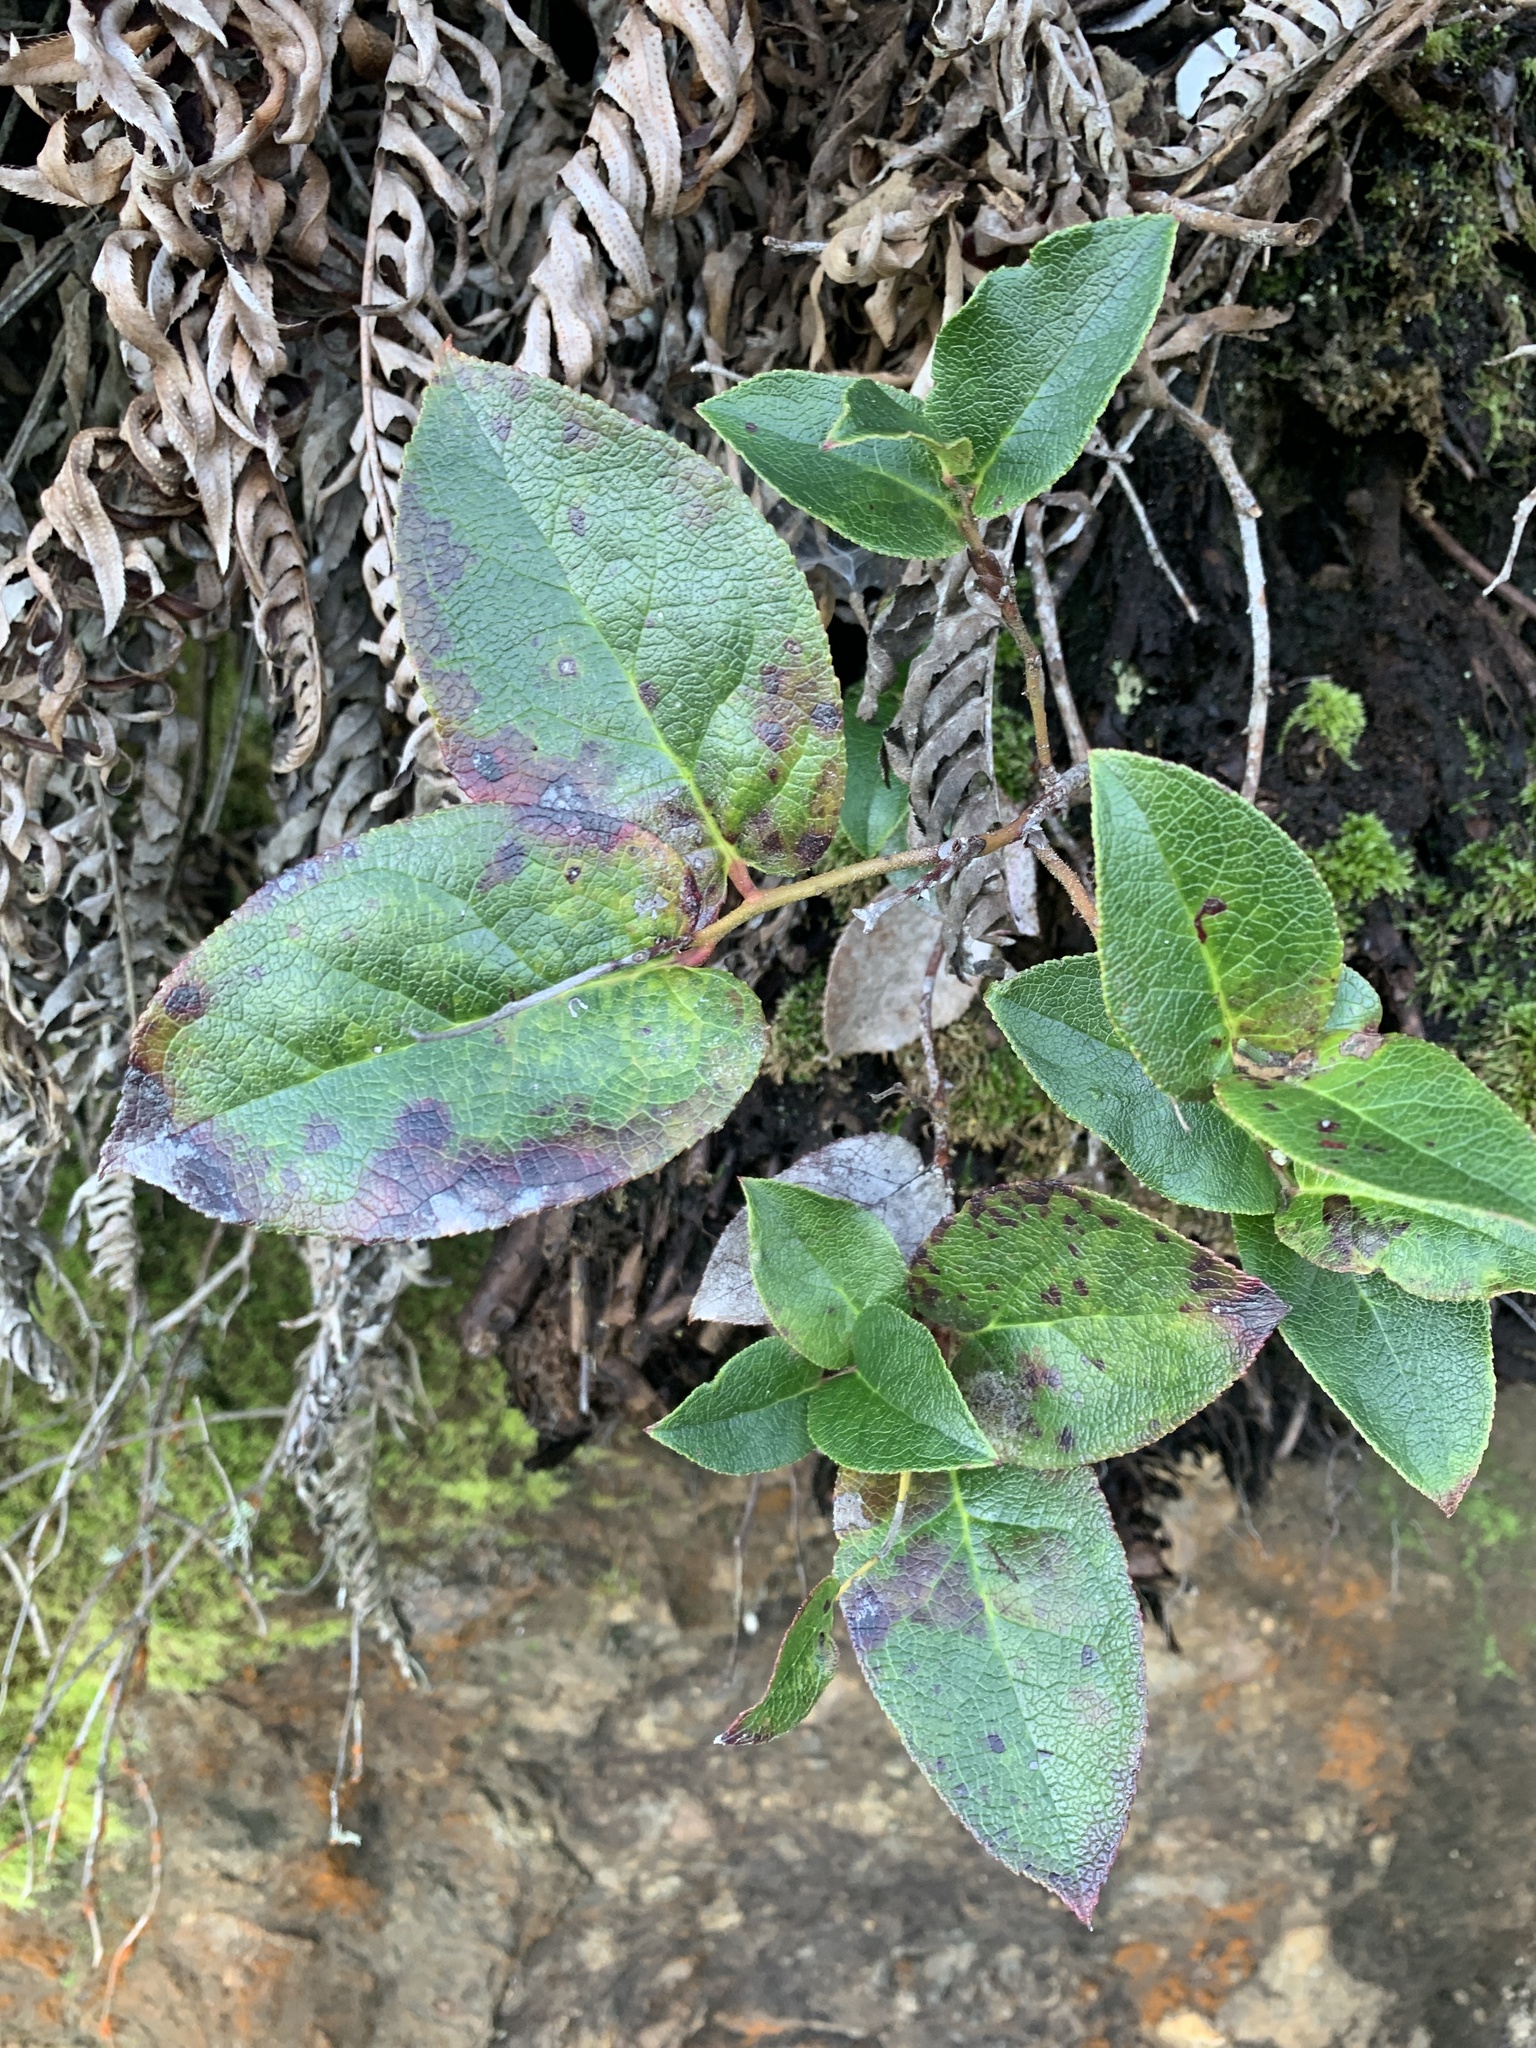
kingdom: Plantae
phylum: Tracheophyta
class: Magnoliopsida
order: Ericales
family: Ericaceae
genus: Gaultheria
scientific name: Gaultheria shallon
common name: Shallon
